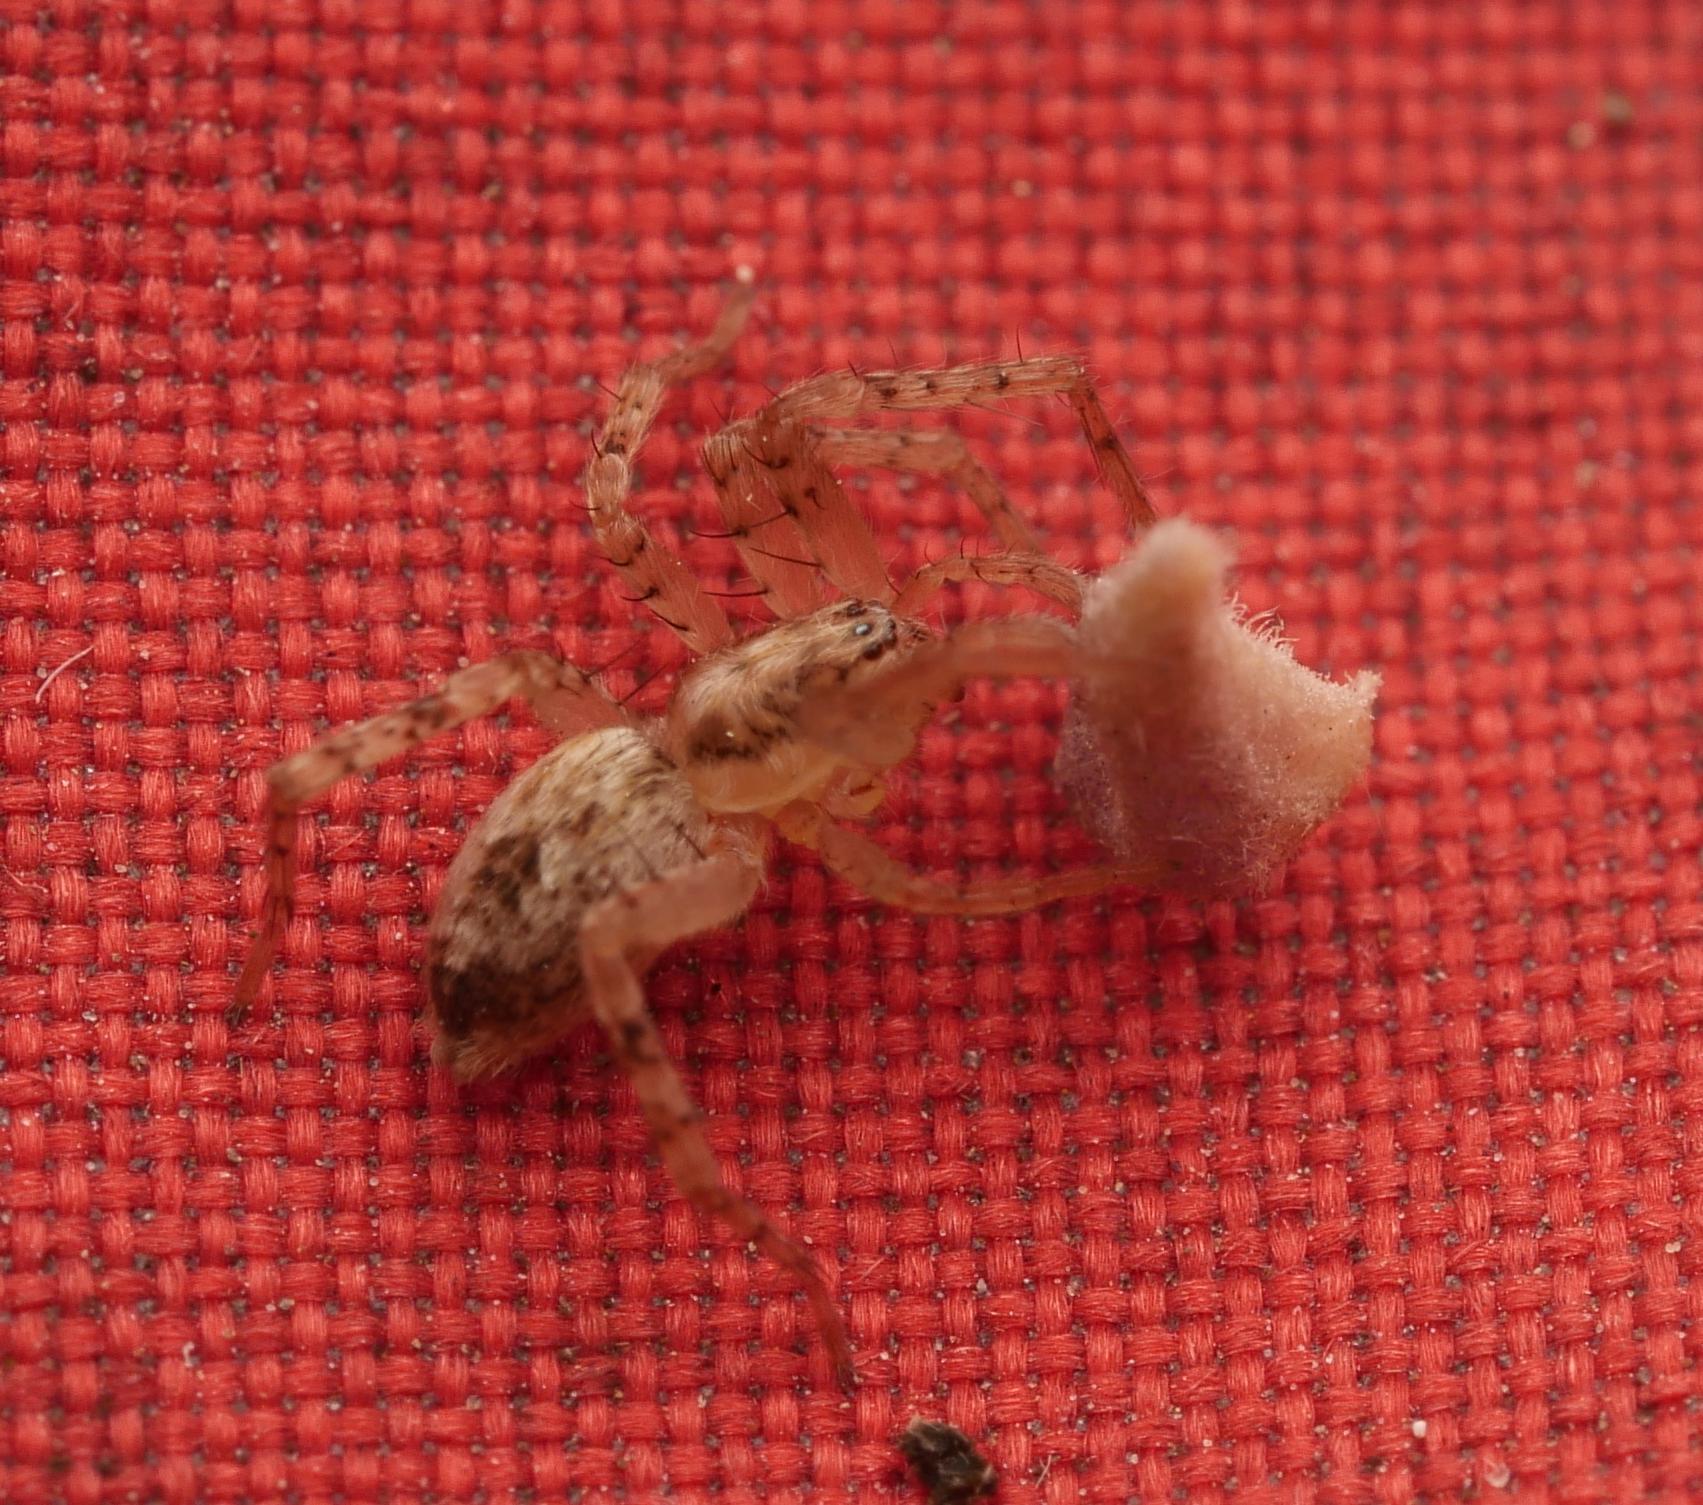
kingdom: Animalia
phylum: Arthropoda
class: Arachnida
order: Araneae
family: Anyphaenidae
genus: Anyphaena
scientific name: Anyphaena accentuata
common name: Buzzing spider
